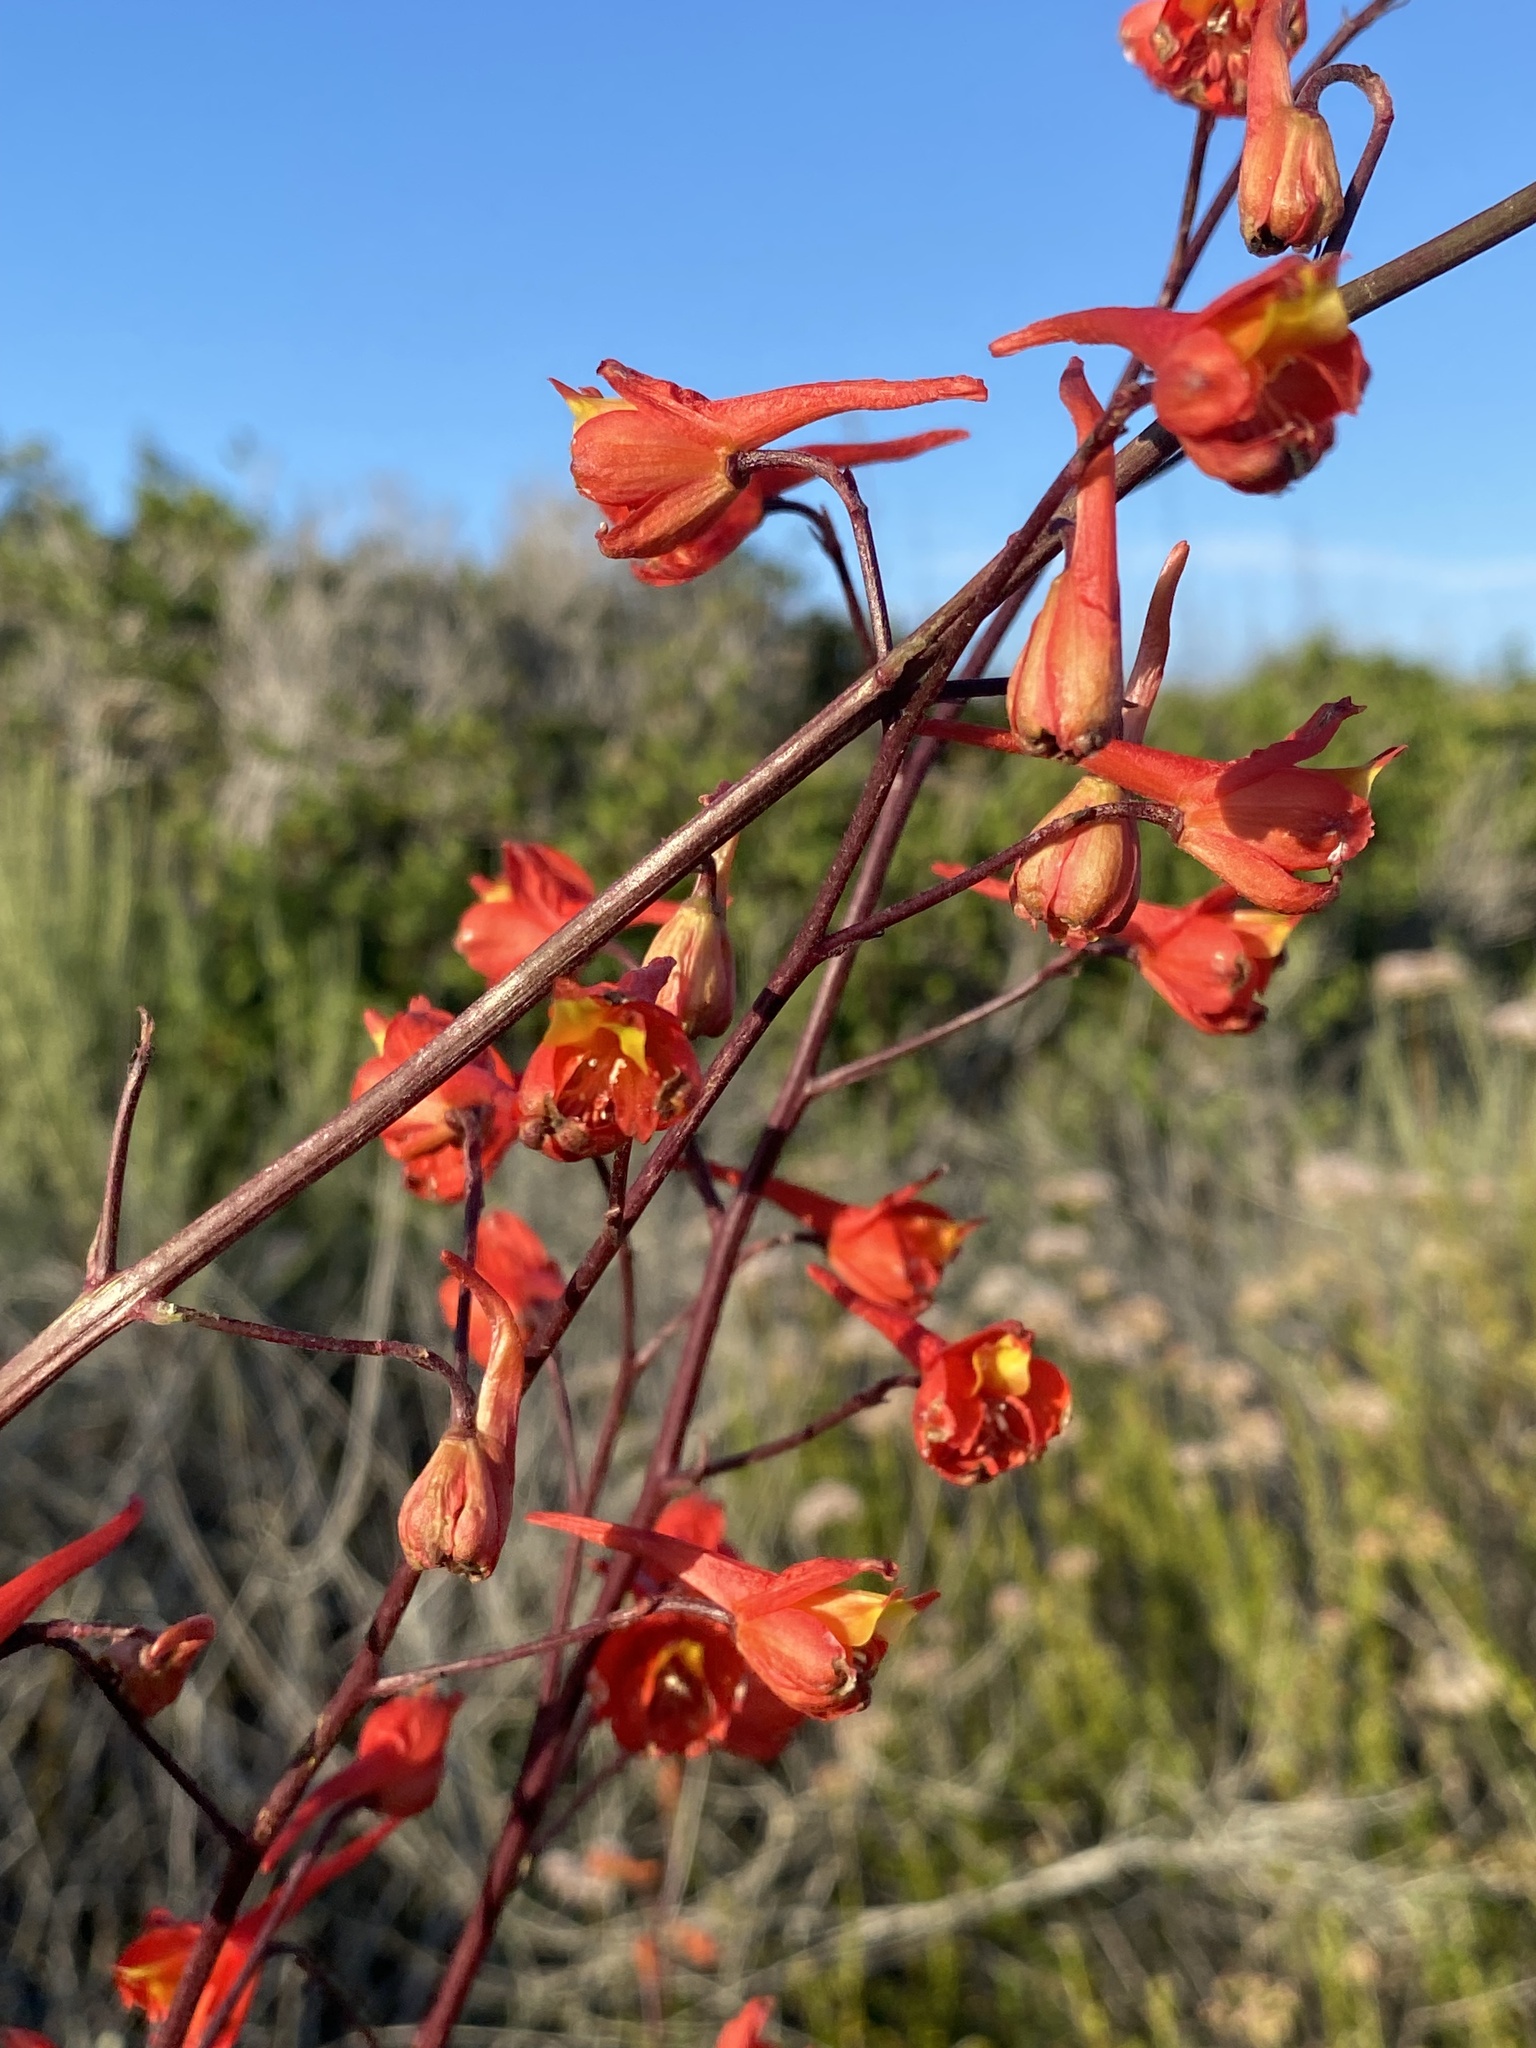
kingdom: Plantae
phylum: Tracheophyta
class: Magnoliopsida
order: Ranunculales
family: Ranunculaceae
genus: Delphinium
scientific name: Delphinium cardinale
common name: Scarlet larkspur
